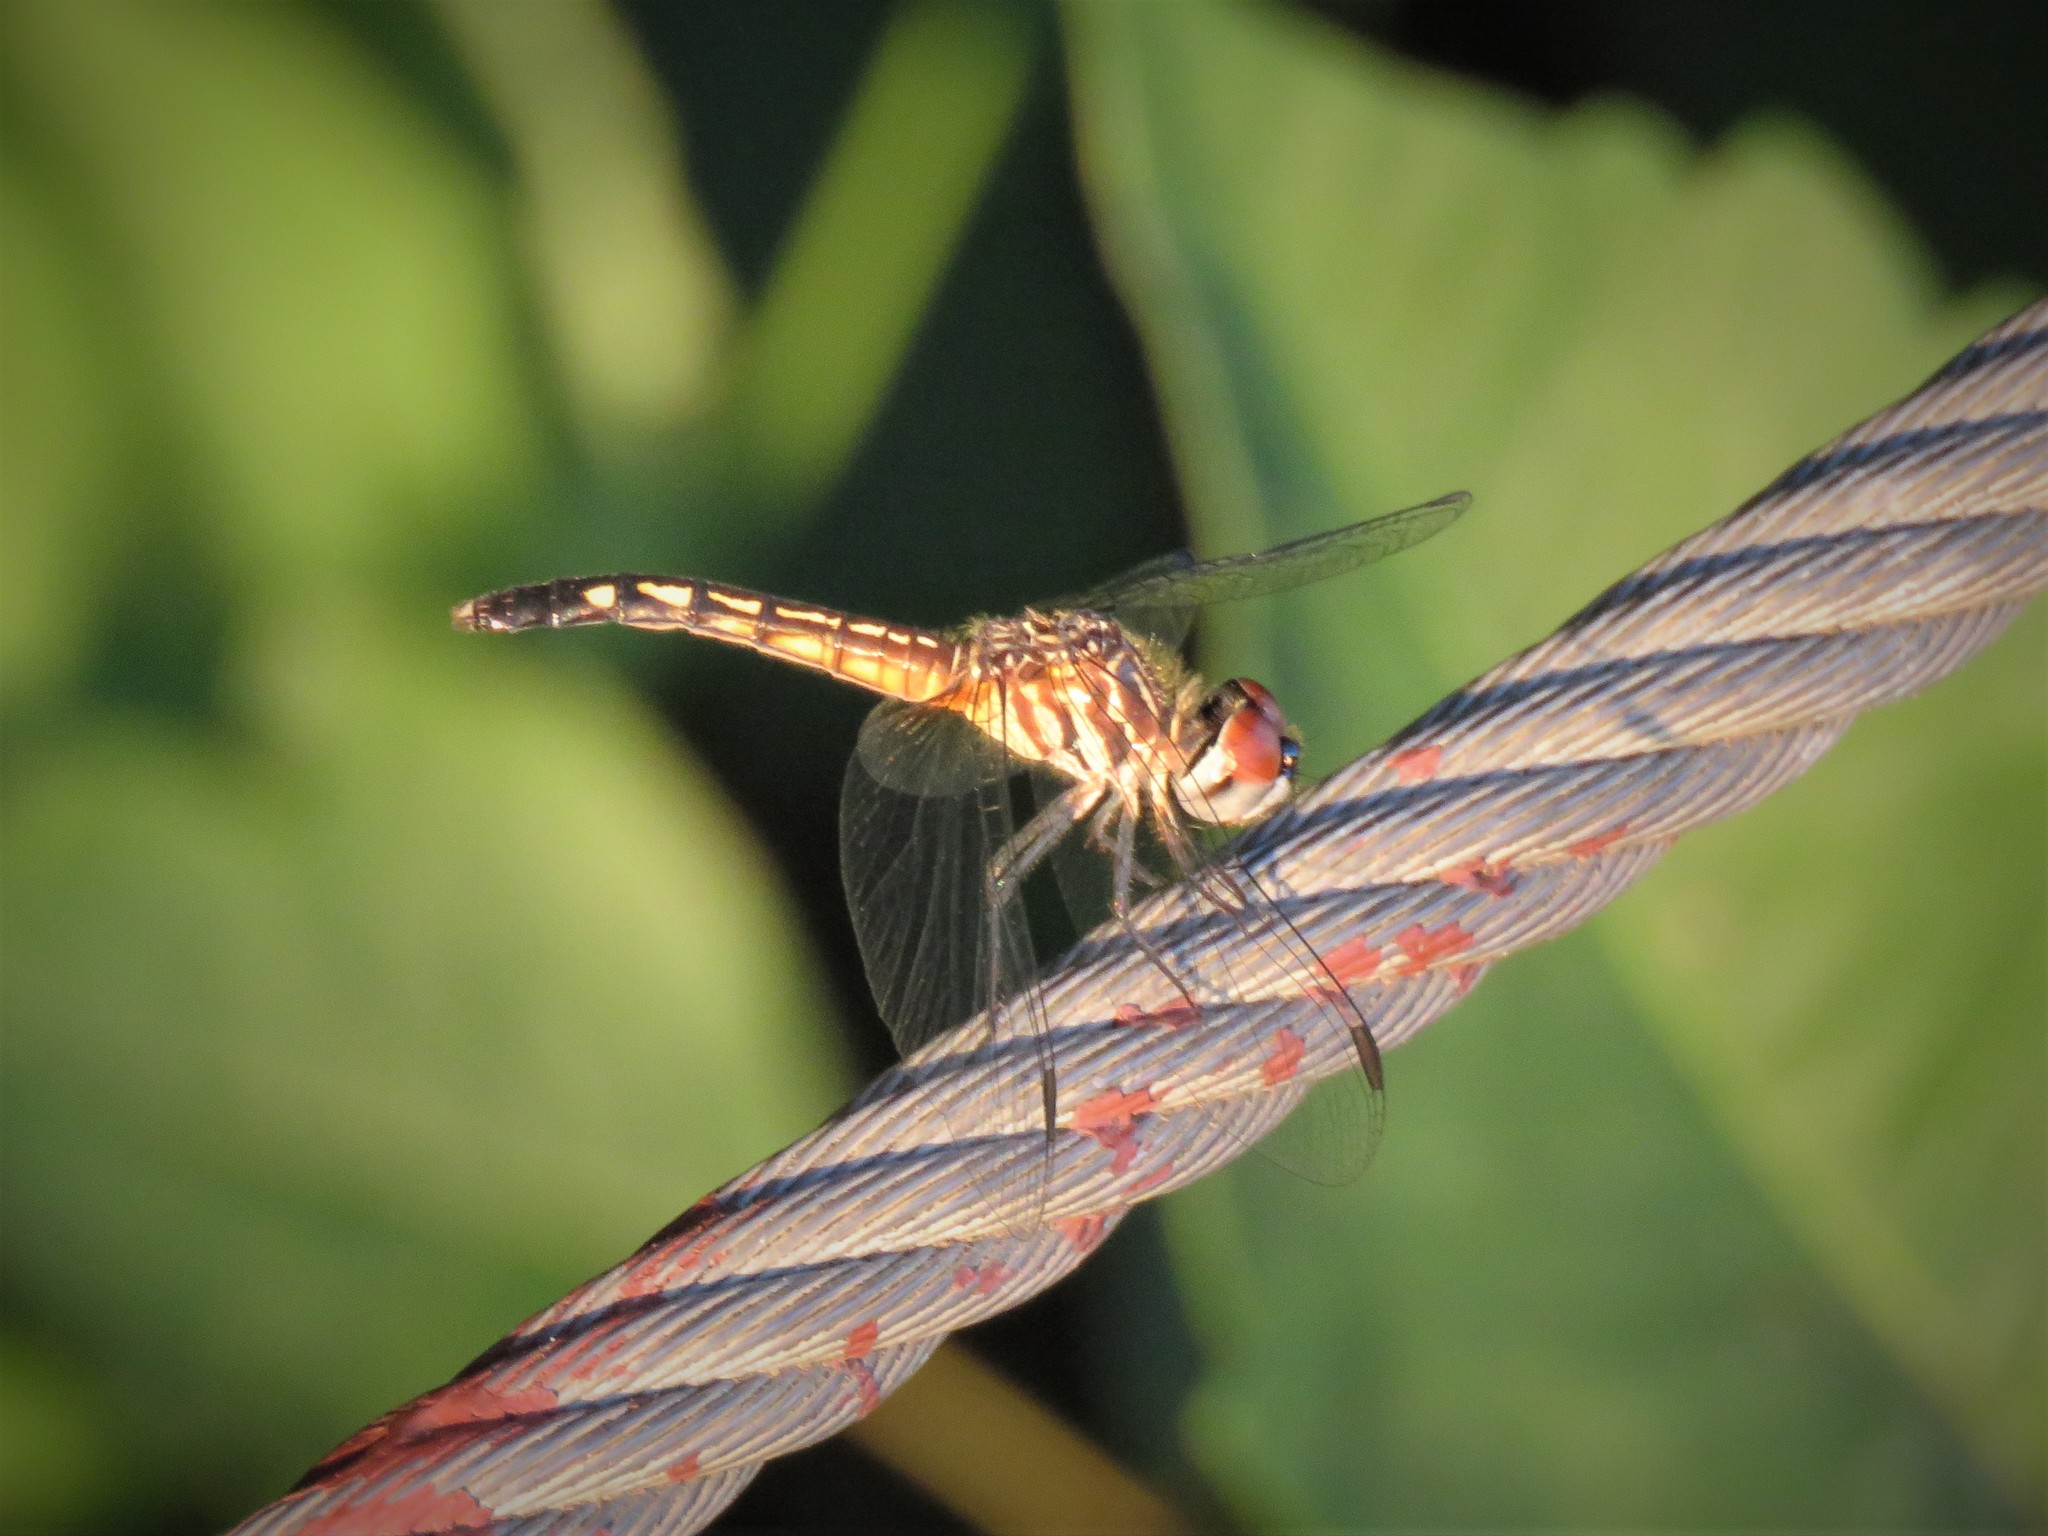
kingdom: Animalia
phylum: Arthropoda
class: Insecta
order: Odonata
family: Libellulidae
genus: Pachydiplax
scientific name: Pachydiplax longipennis
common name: Blue dasher
